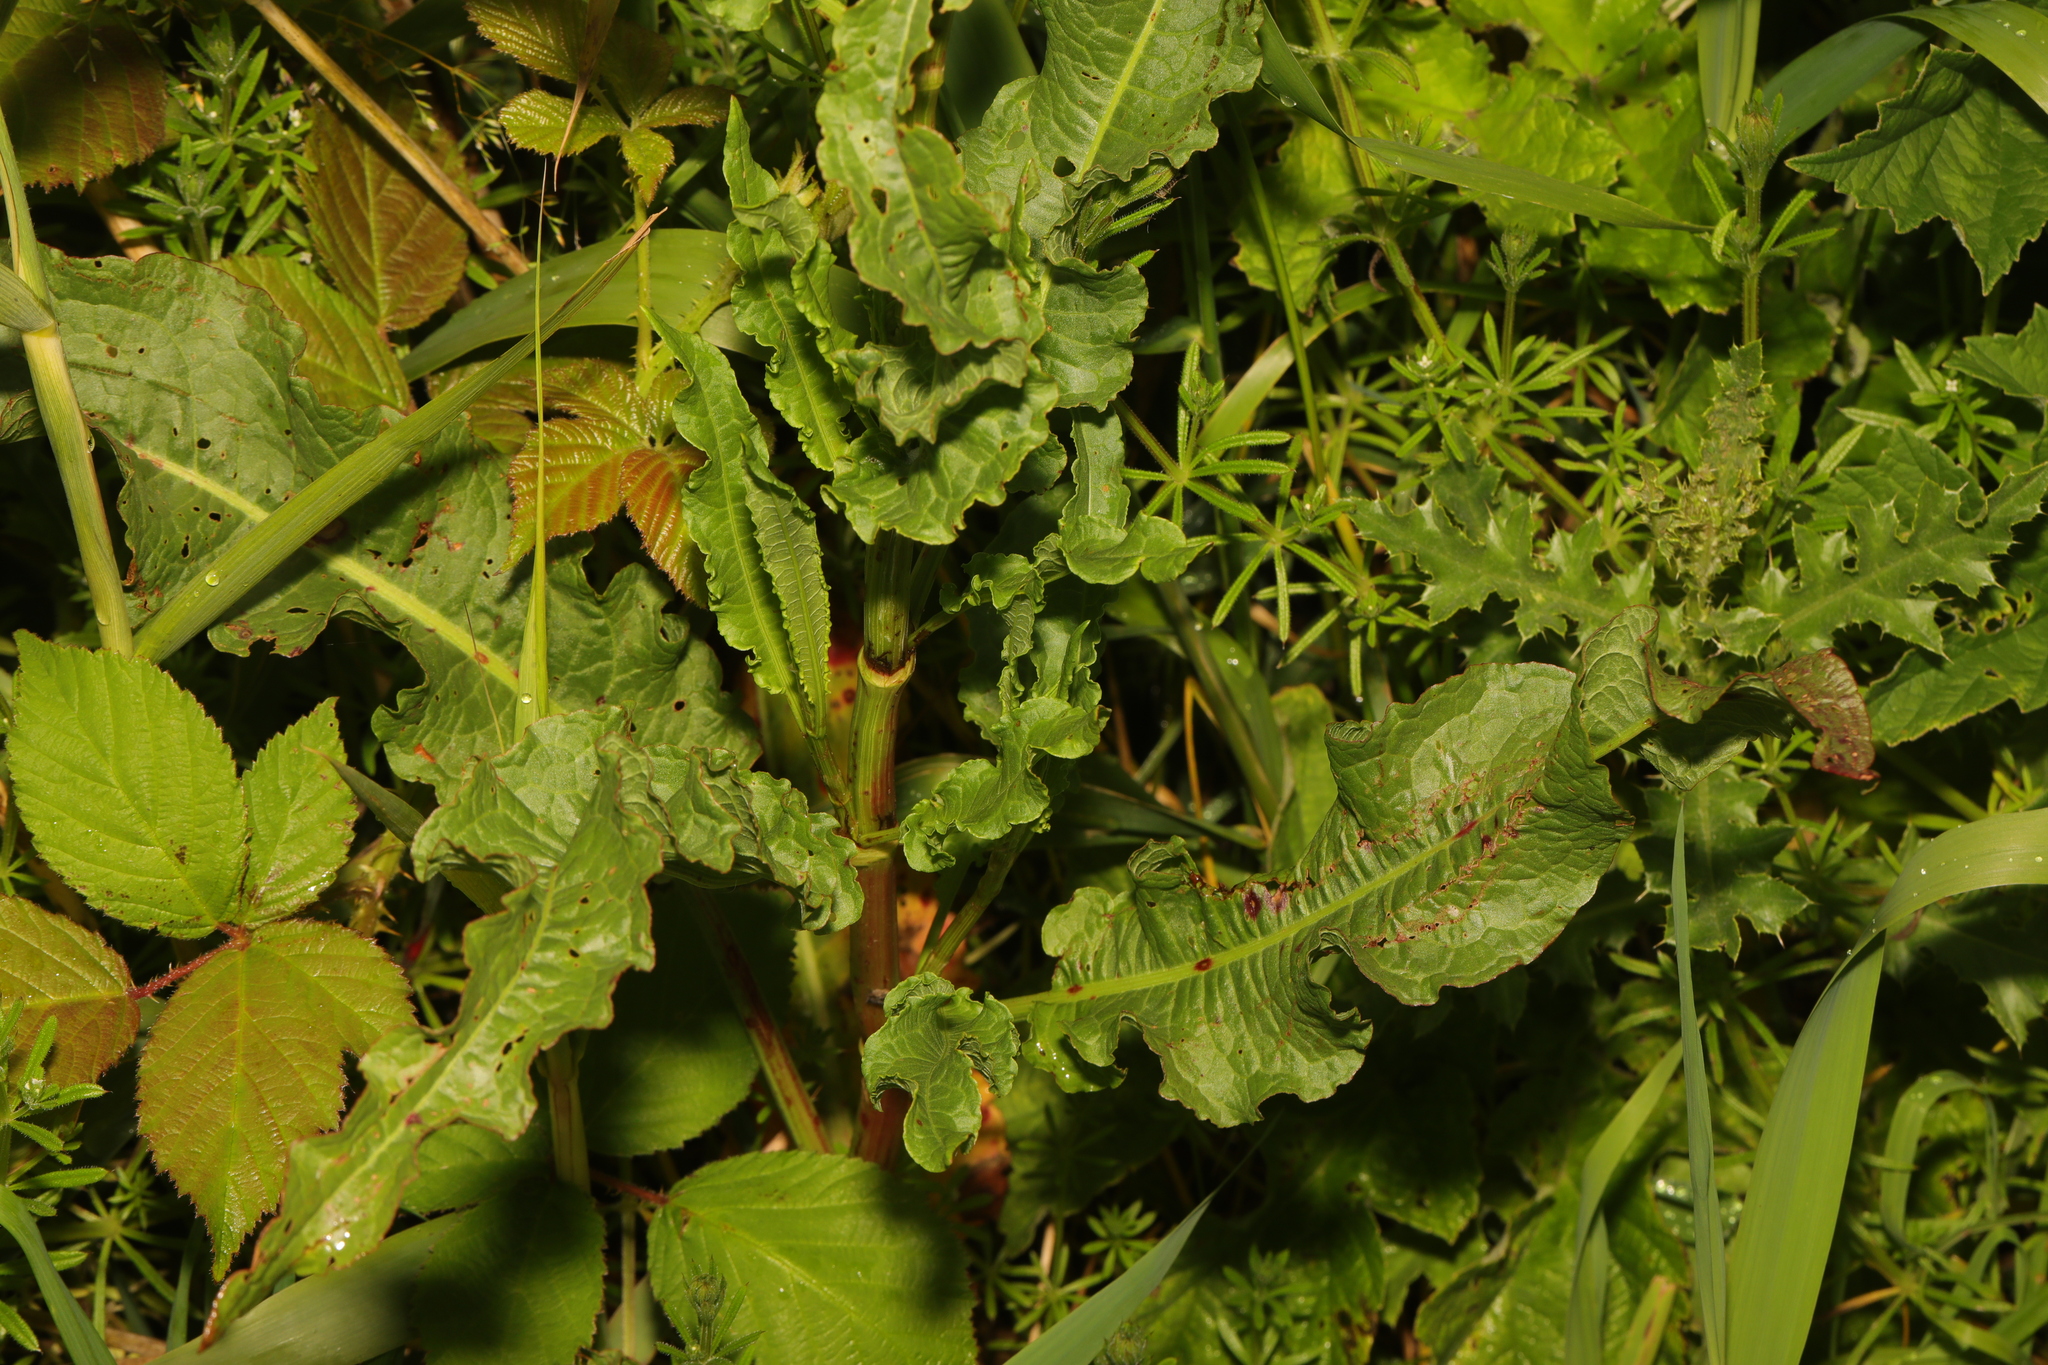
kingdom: Plantae
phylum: Tracheophyta
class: Magnoliopsida
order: Caryophyllales
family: Polygonaceae
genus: Rumex
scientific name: Rumex crispus
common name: Curled dock
